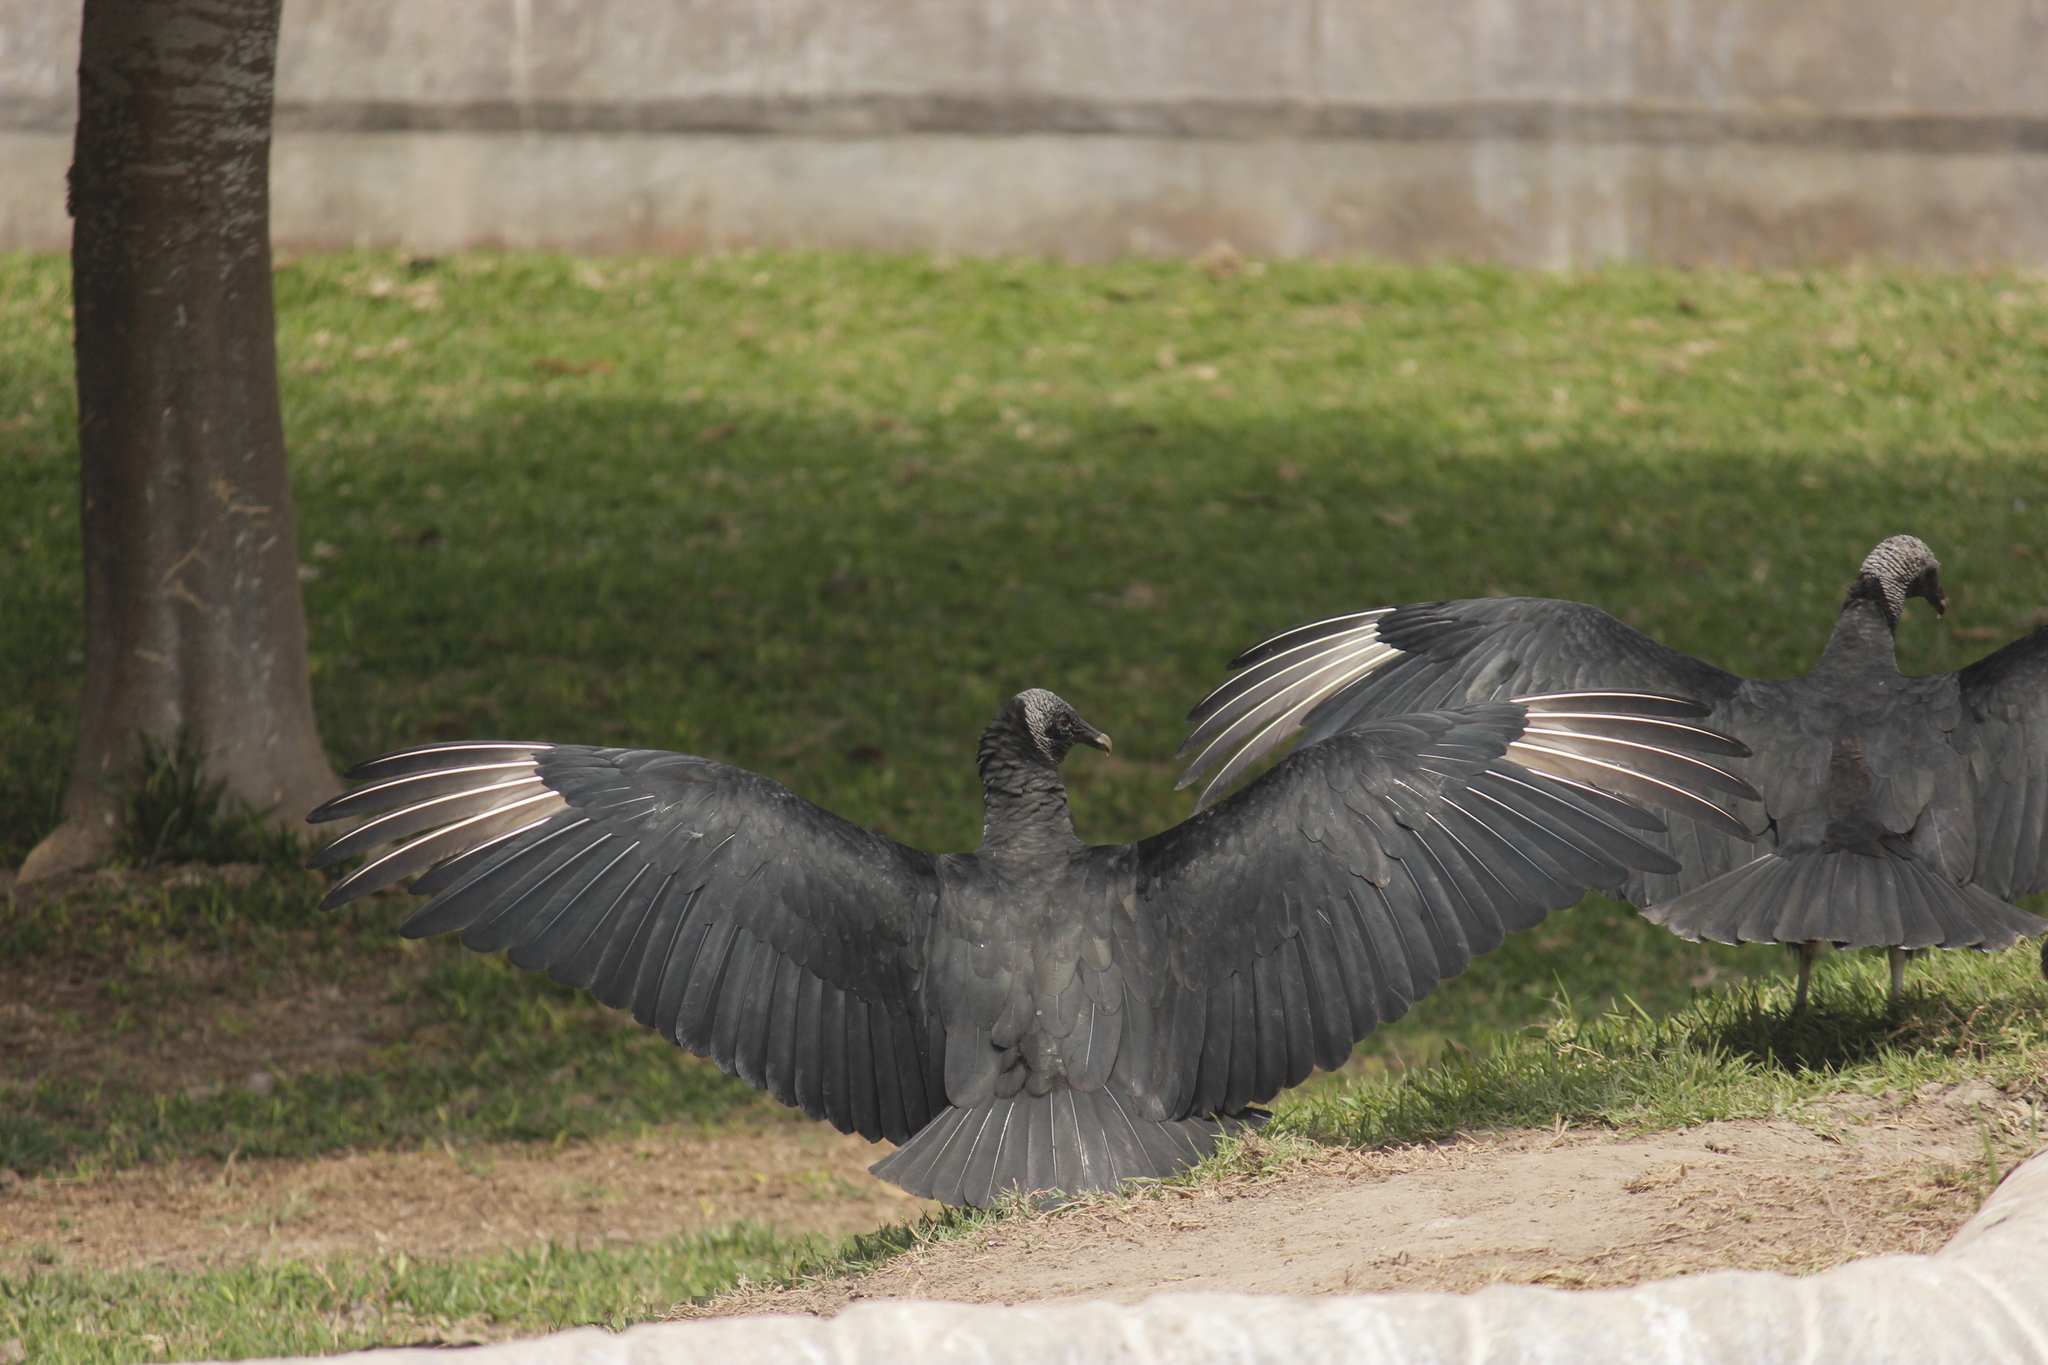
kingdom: Animalia
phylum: Chordata
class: Aves
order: Accipitriformes
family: Cathartidae
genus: Coragyps
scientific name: Coragyps atratus
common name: Black vulture
